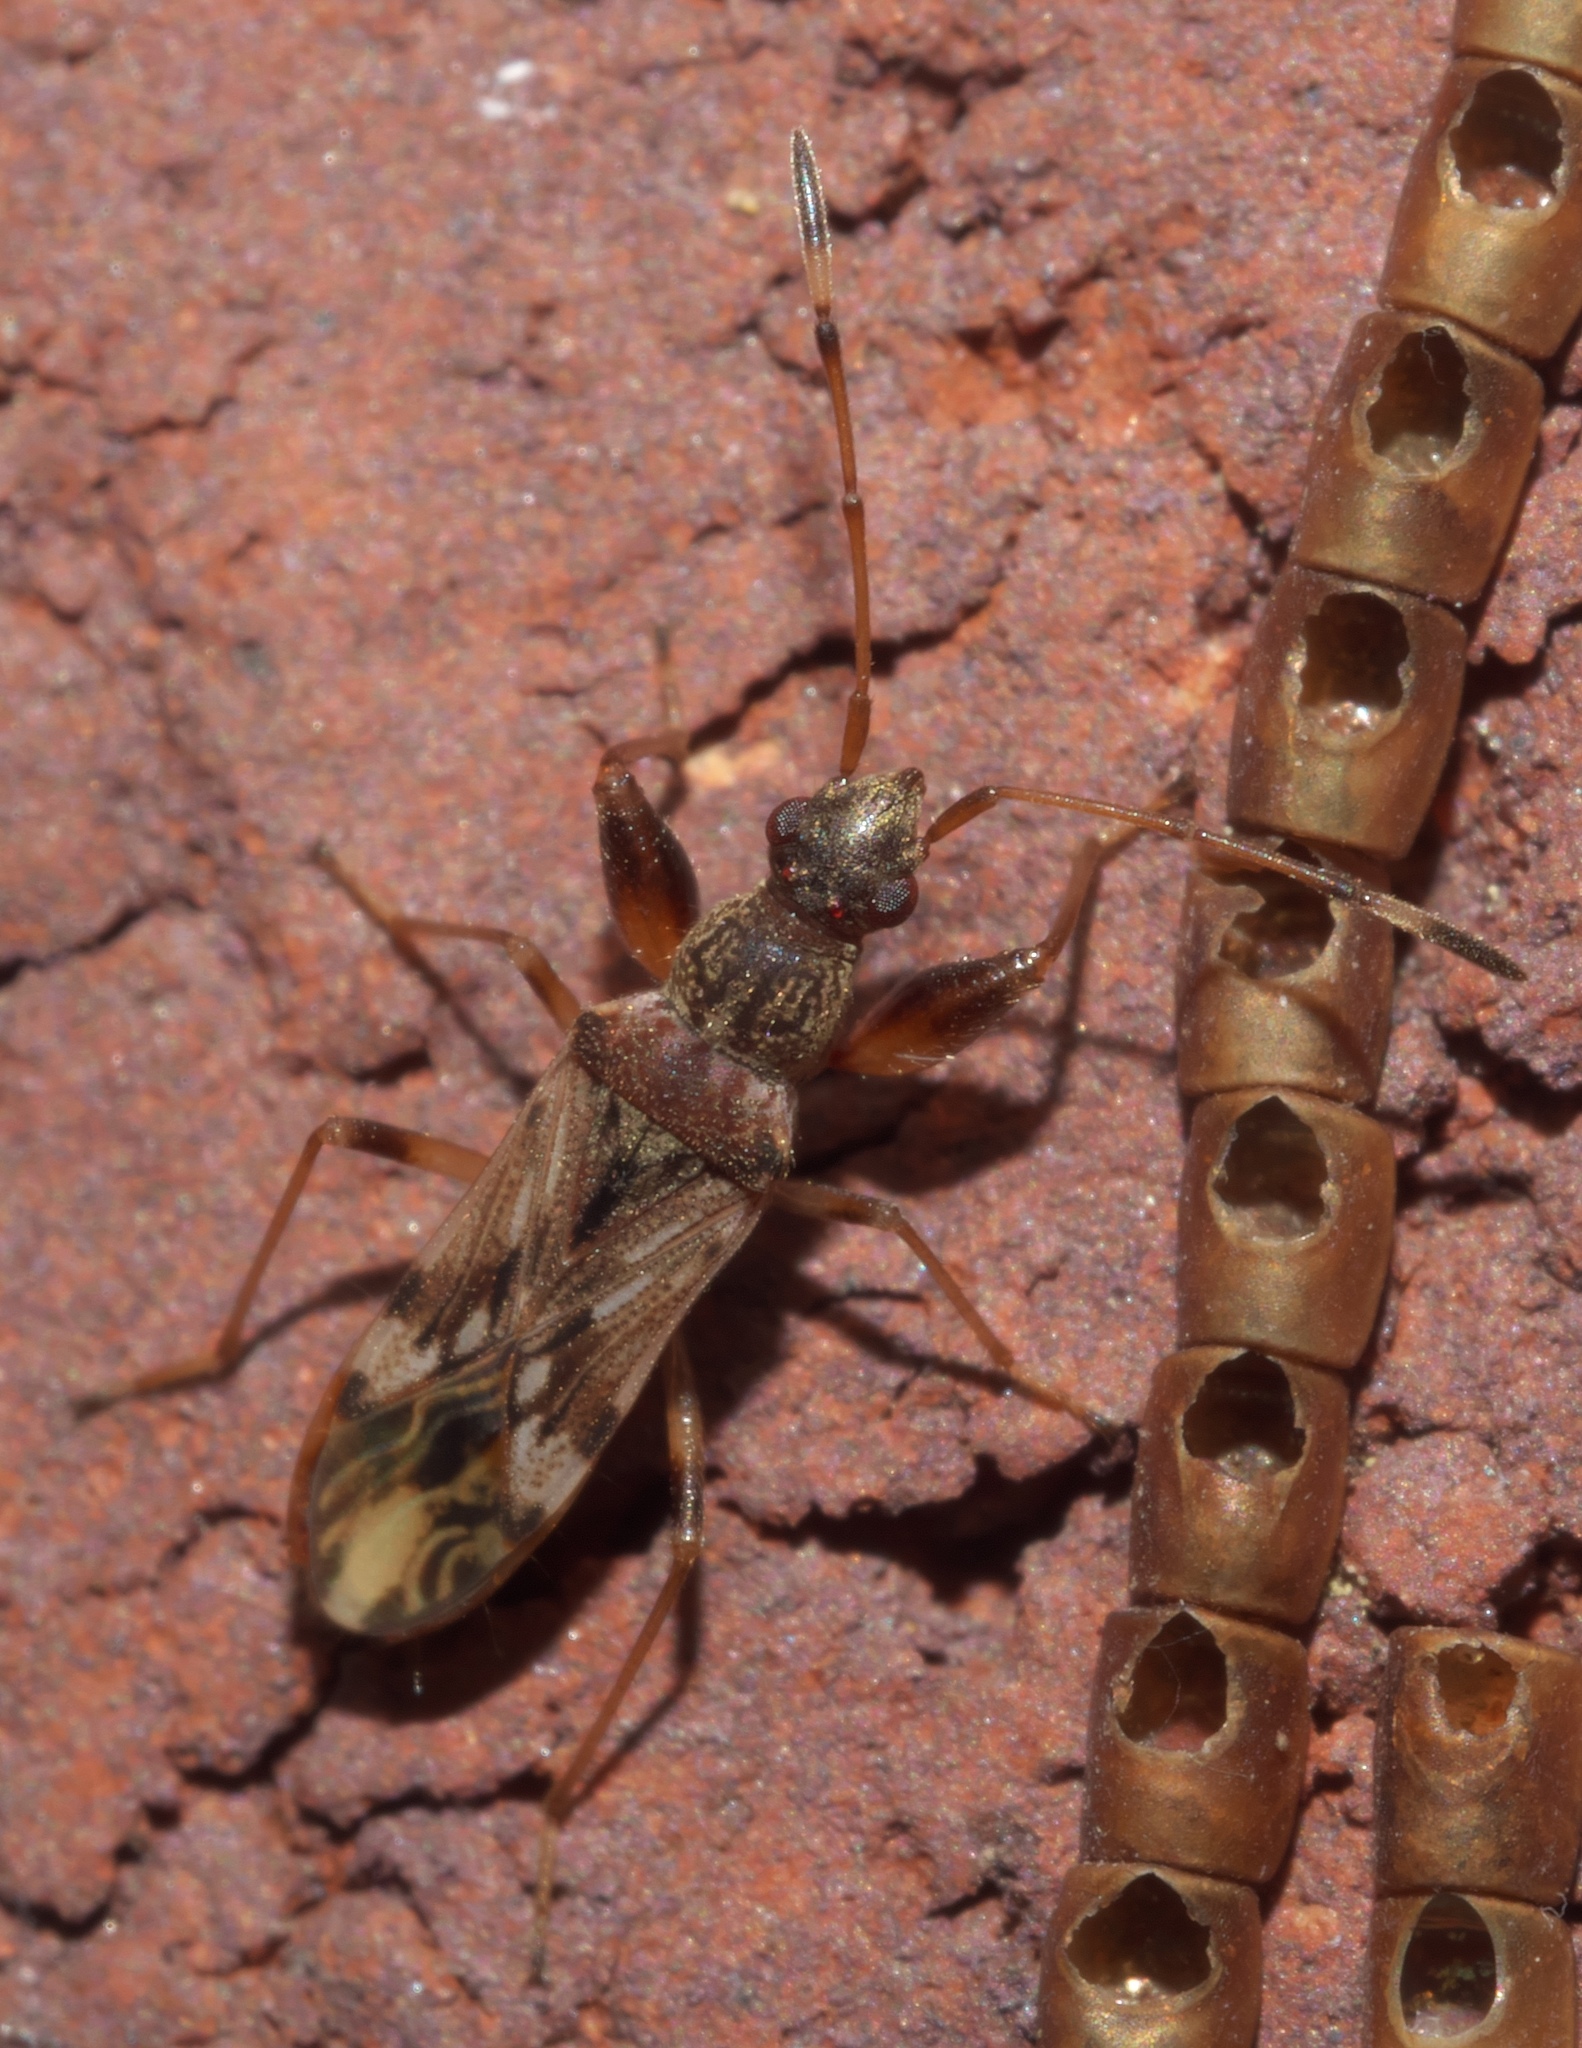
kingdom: Animalia
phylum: Arthropoda
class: Insecta
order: Hemiptera
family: Rhyparochromidae
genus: Neopamera
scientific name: Neopamera albocincta
